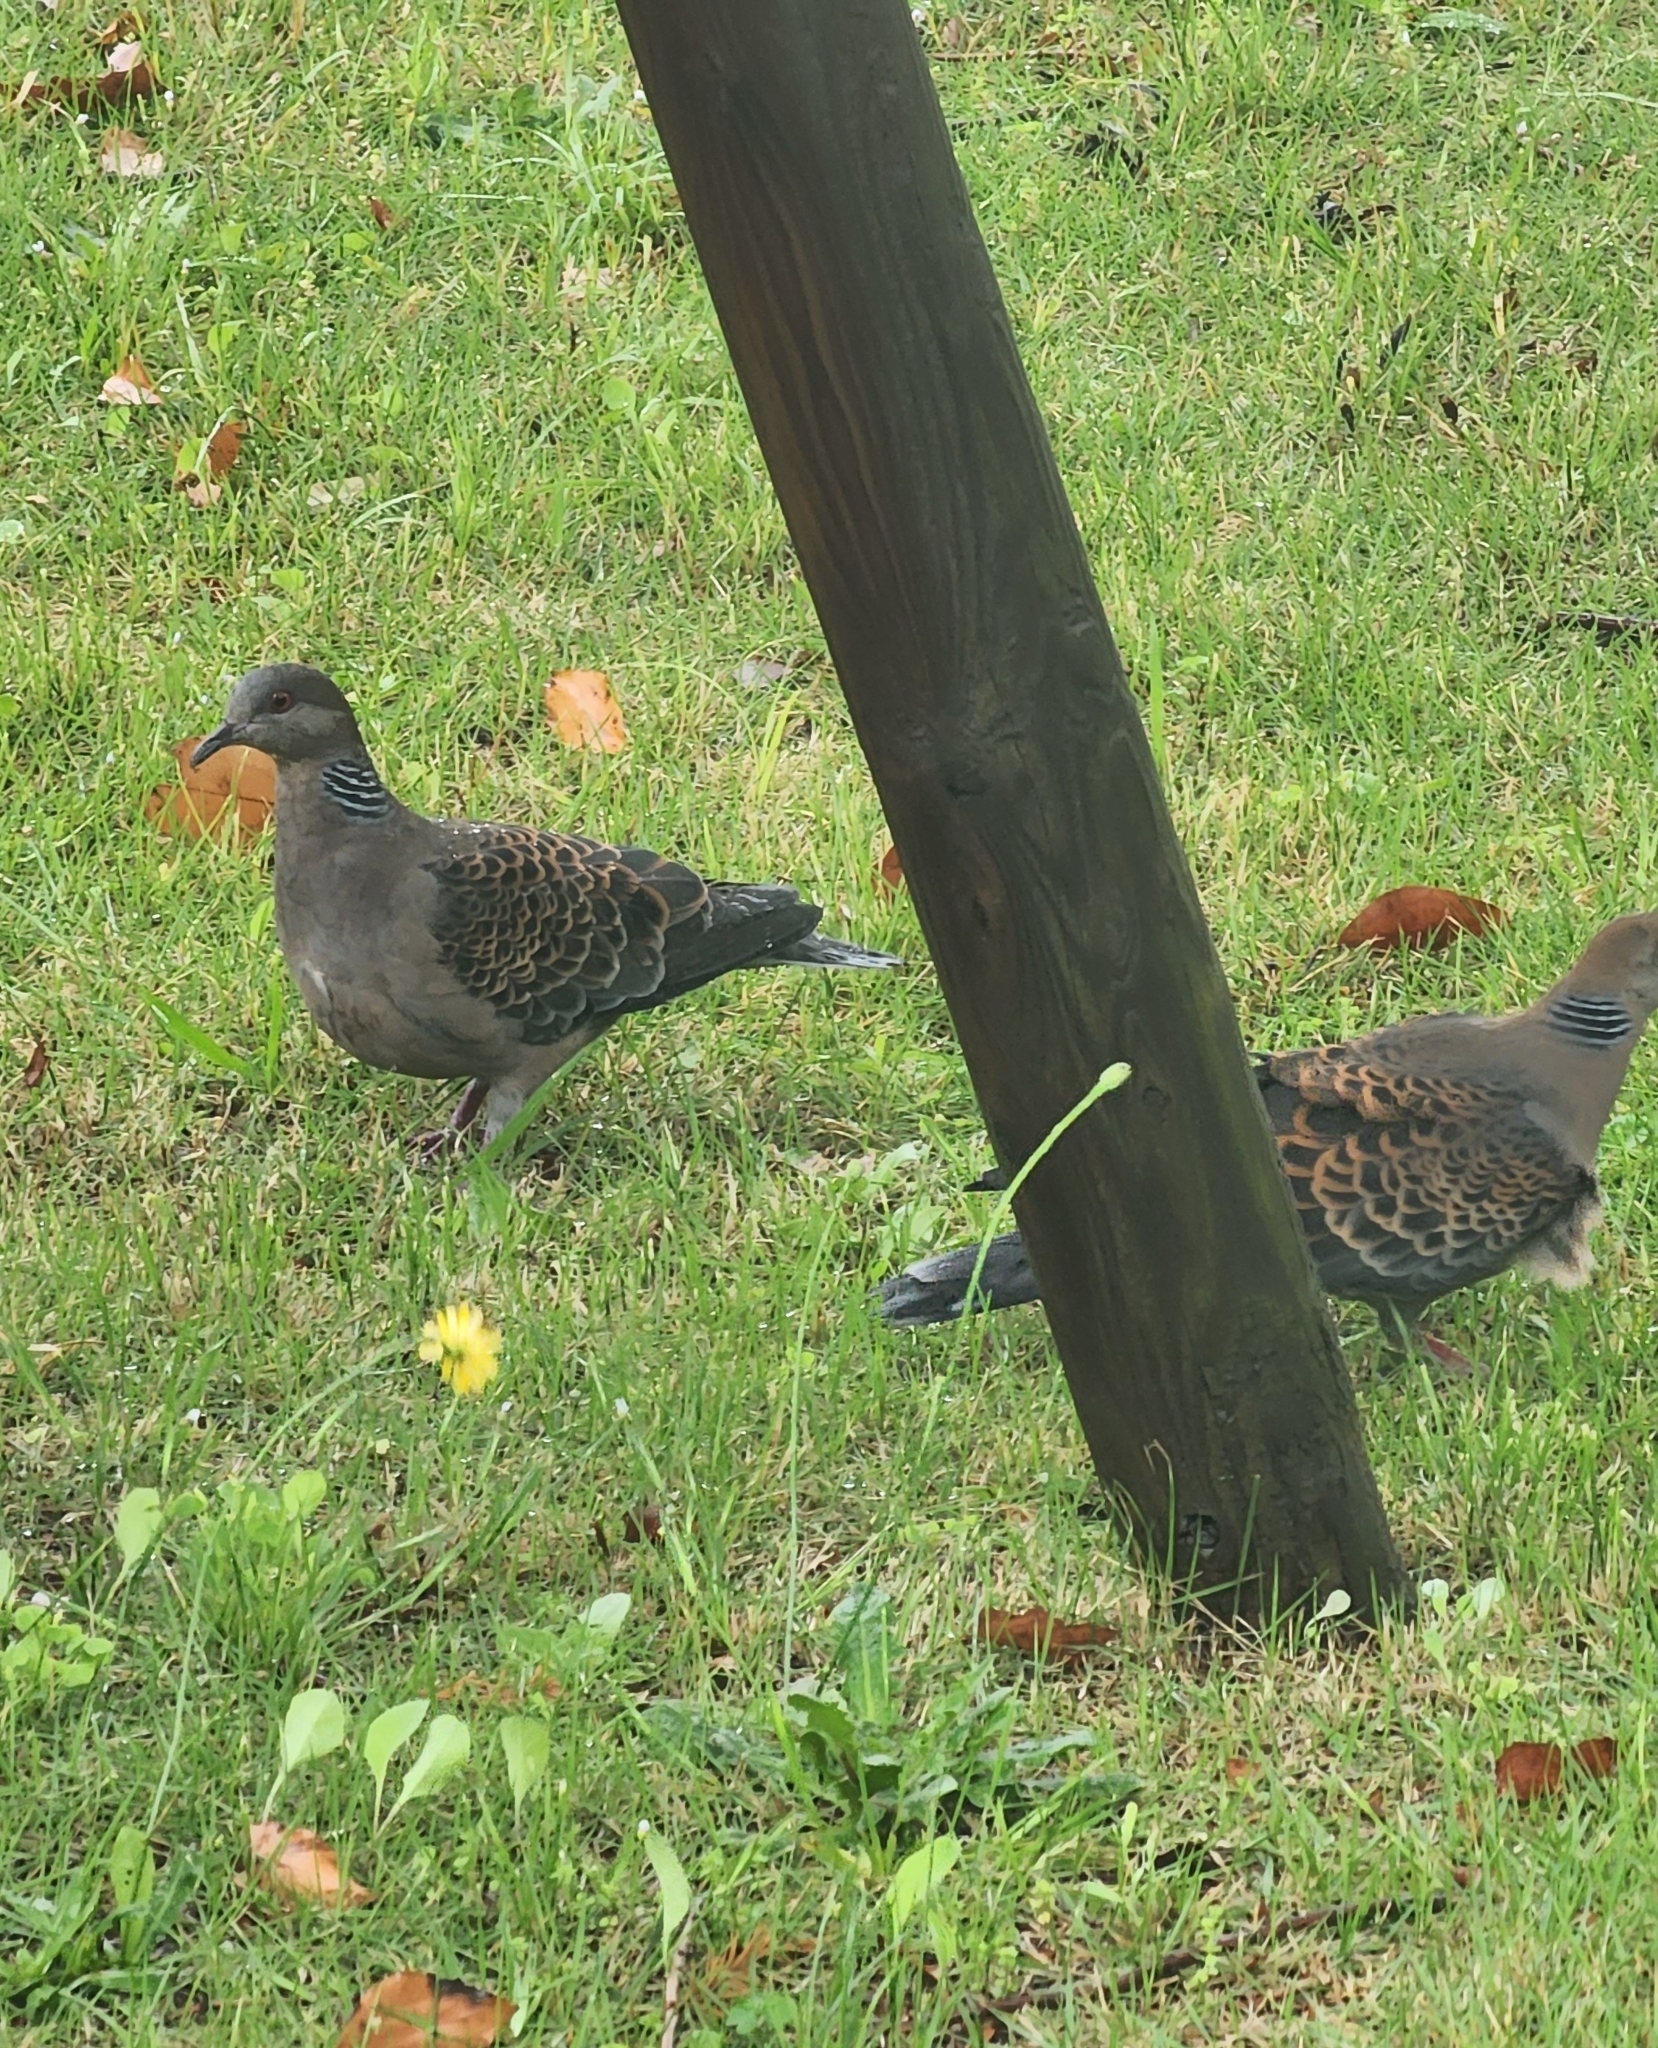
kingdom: Animalia
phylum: Chordata
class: Aves
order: Columbiformes
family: Columbidae
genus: Streptopelia
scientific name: Streptopelia orientalis
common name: Oriental turtle dove
